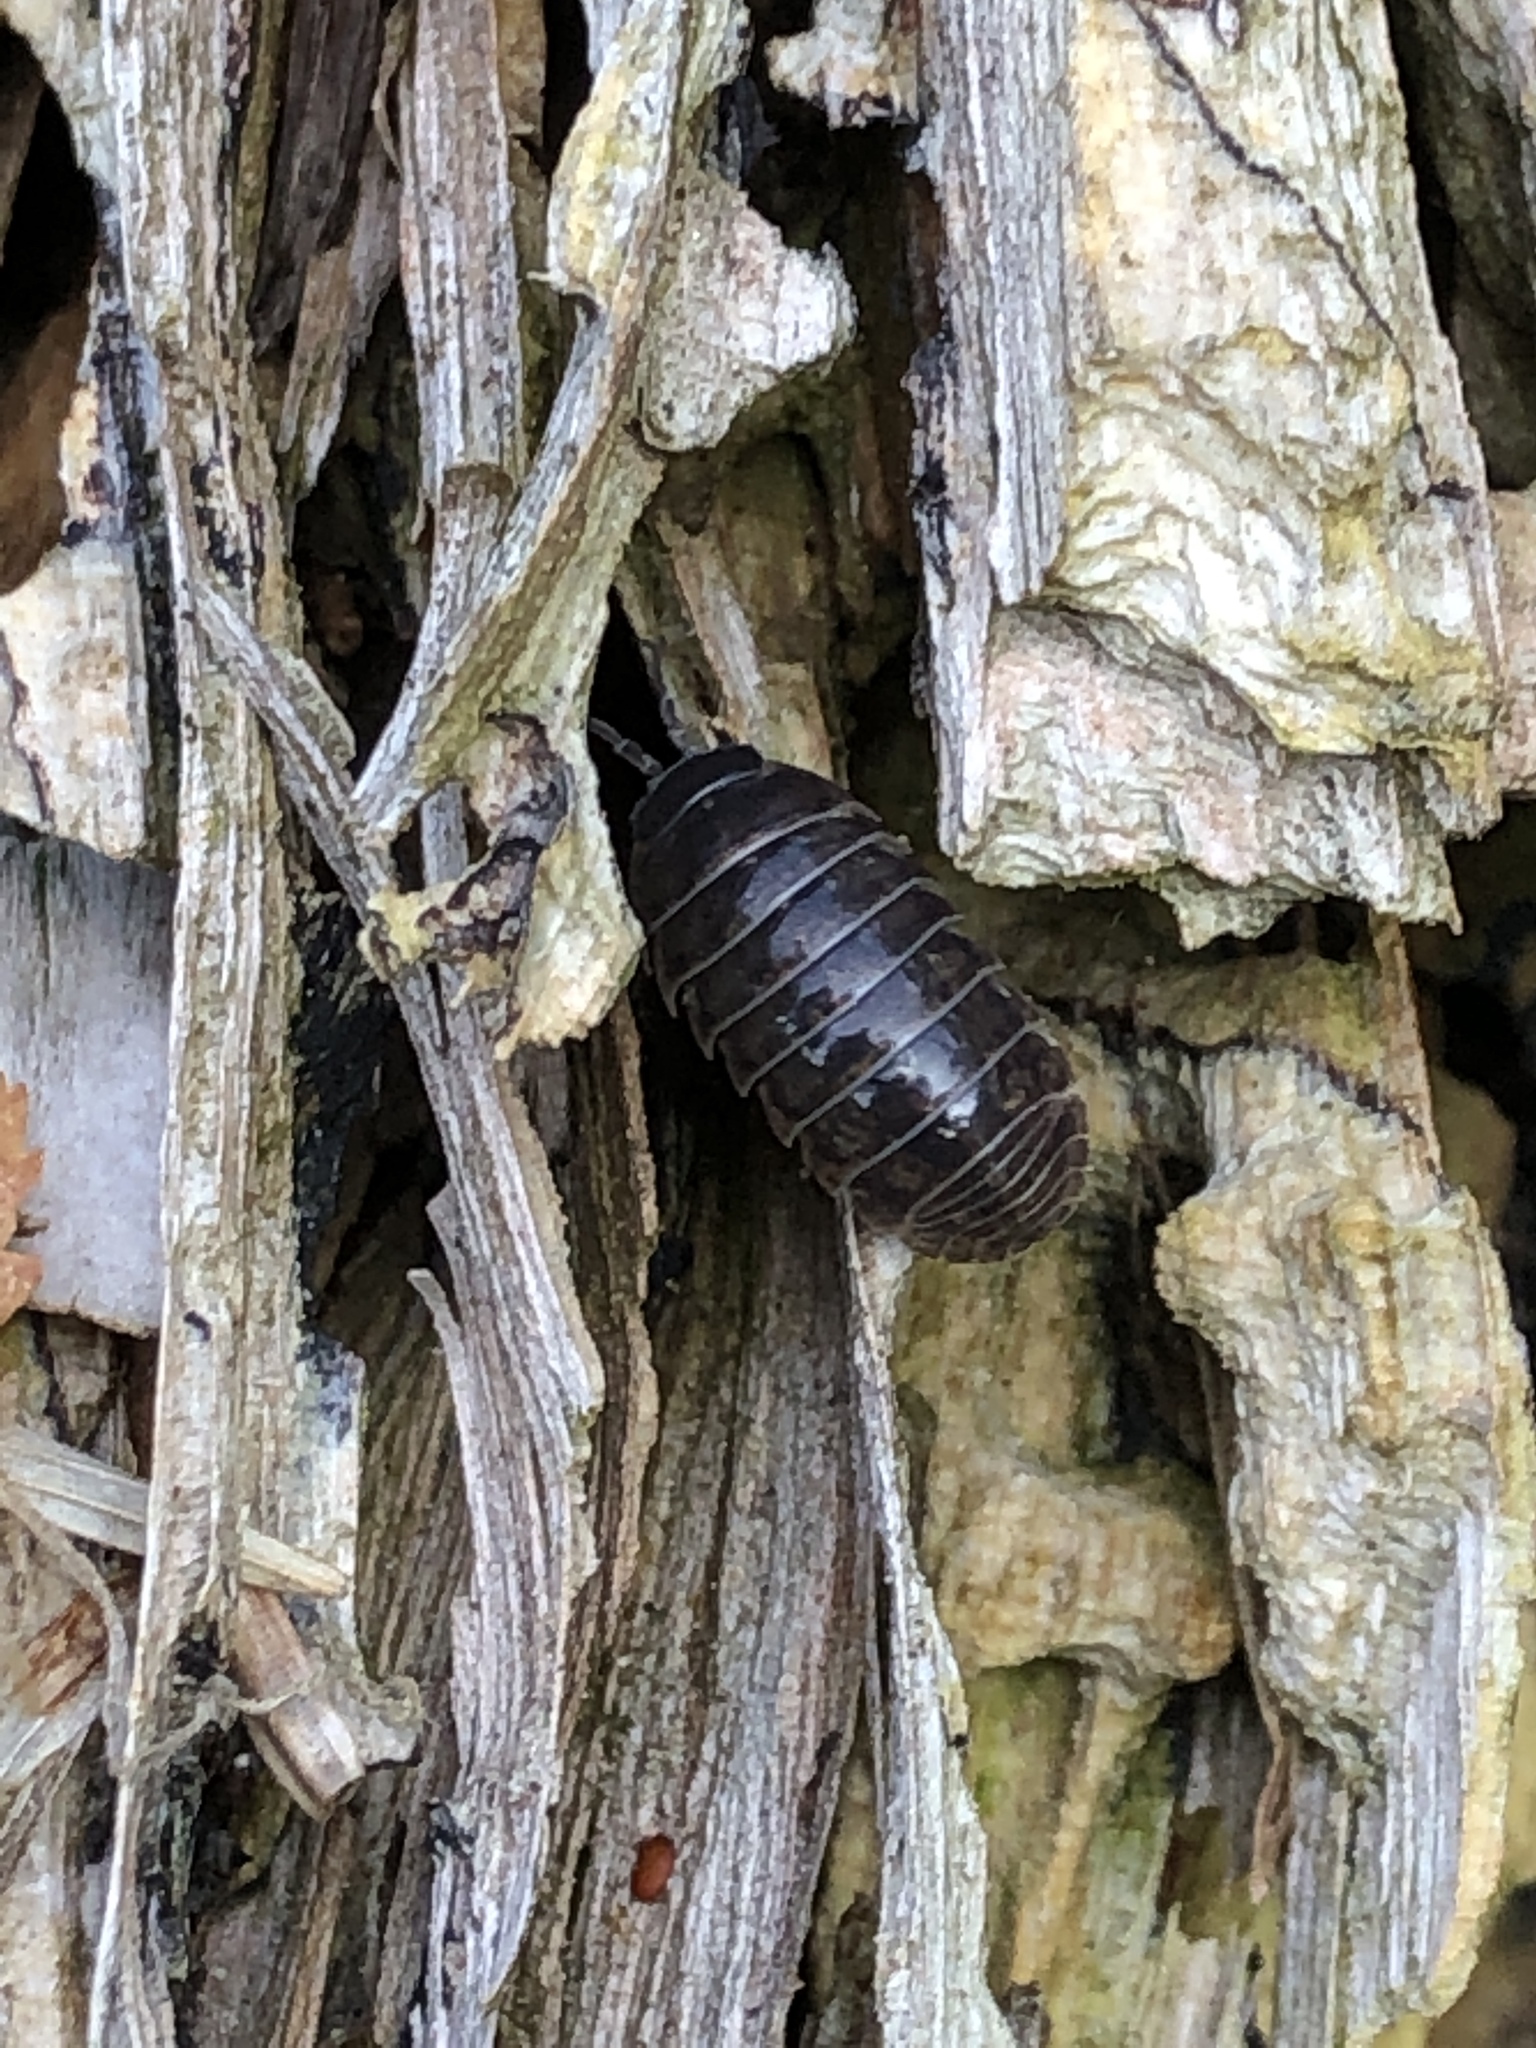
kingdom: Animalia
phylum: Arthropoda
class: Malacostraca
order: Isopoda
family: Armadillidiidae
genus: Armadillidium
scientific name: Armadillidium vulgare
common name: Common pill woodlouse
